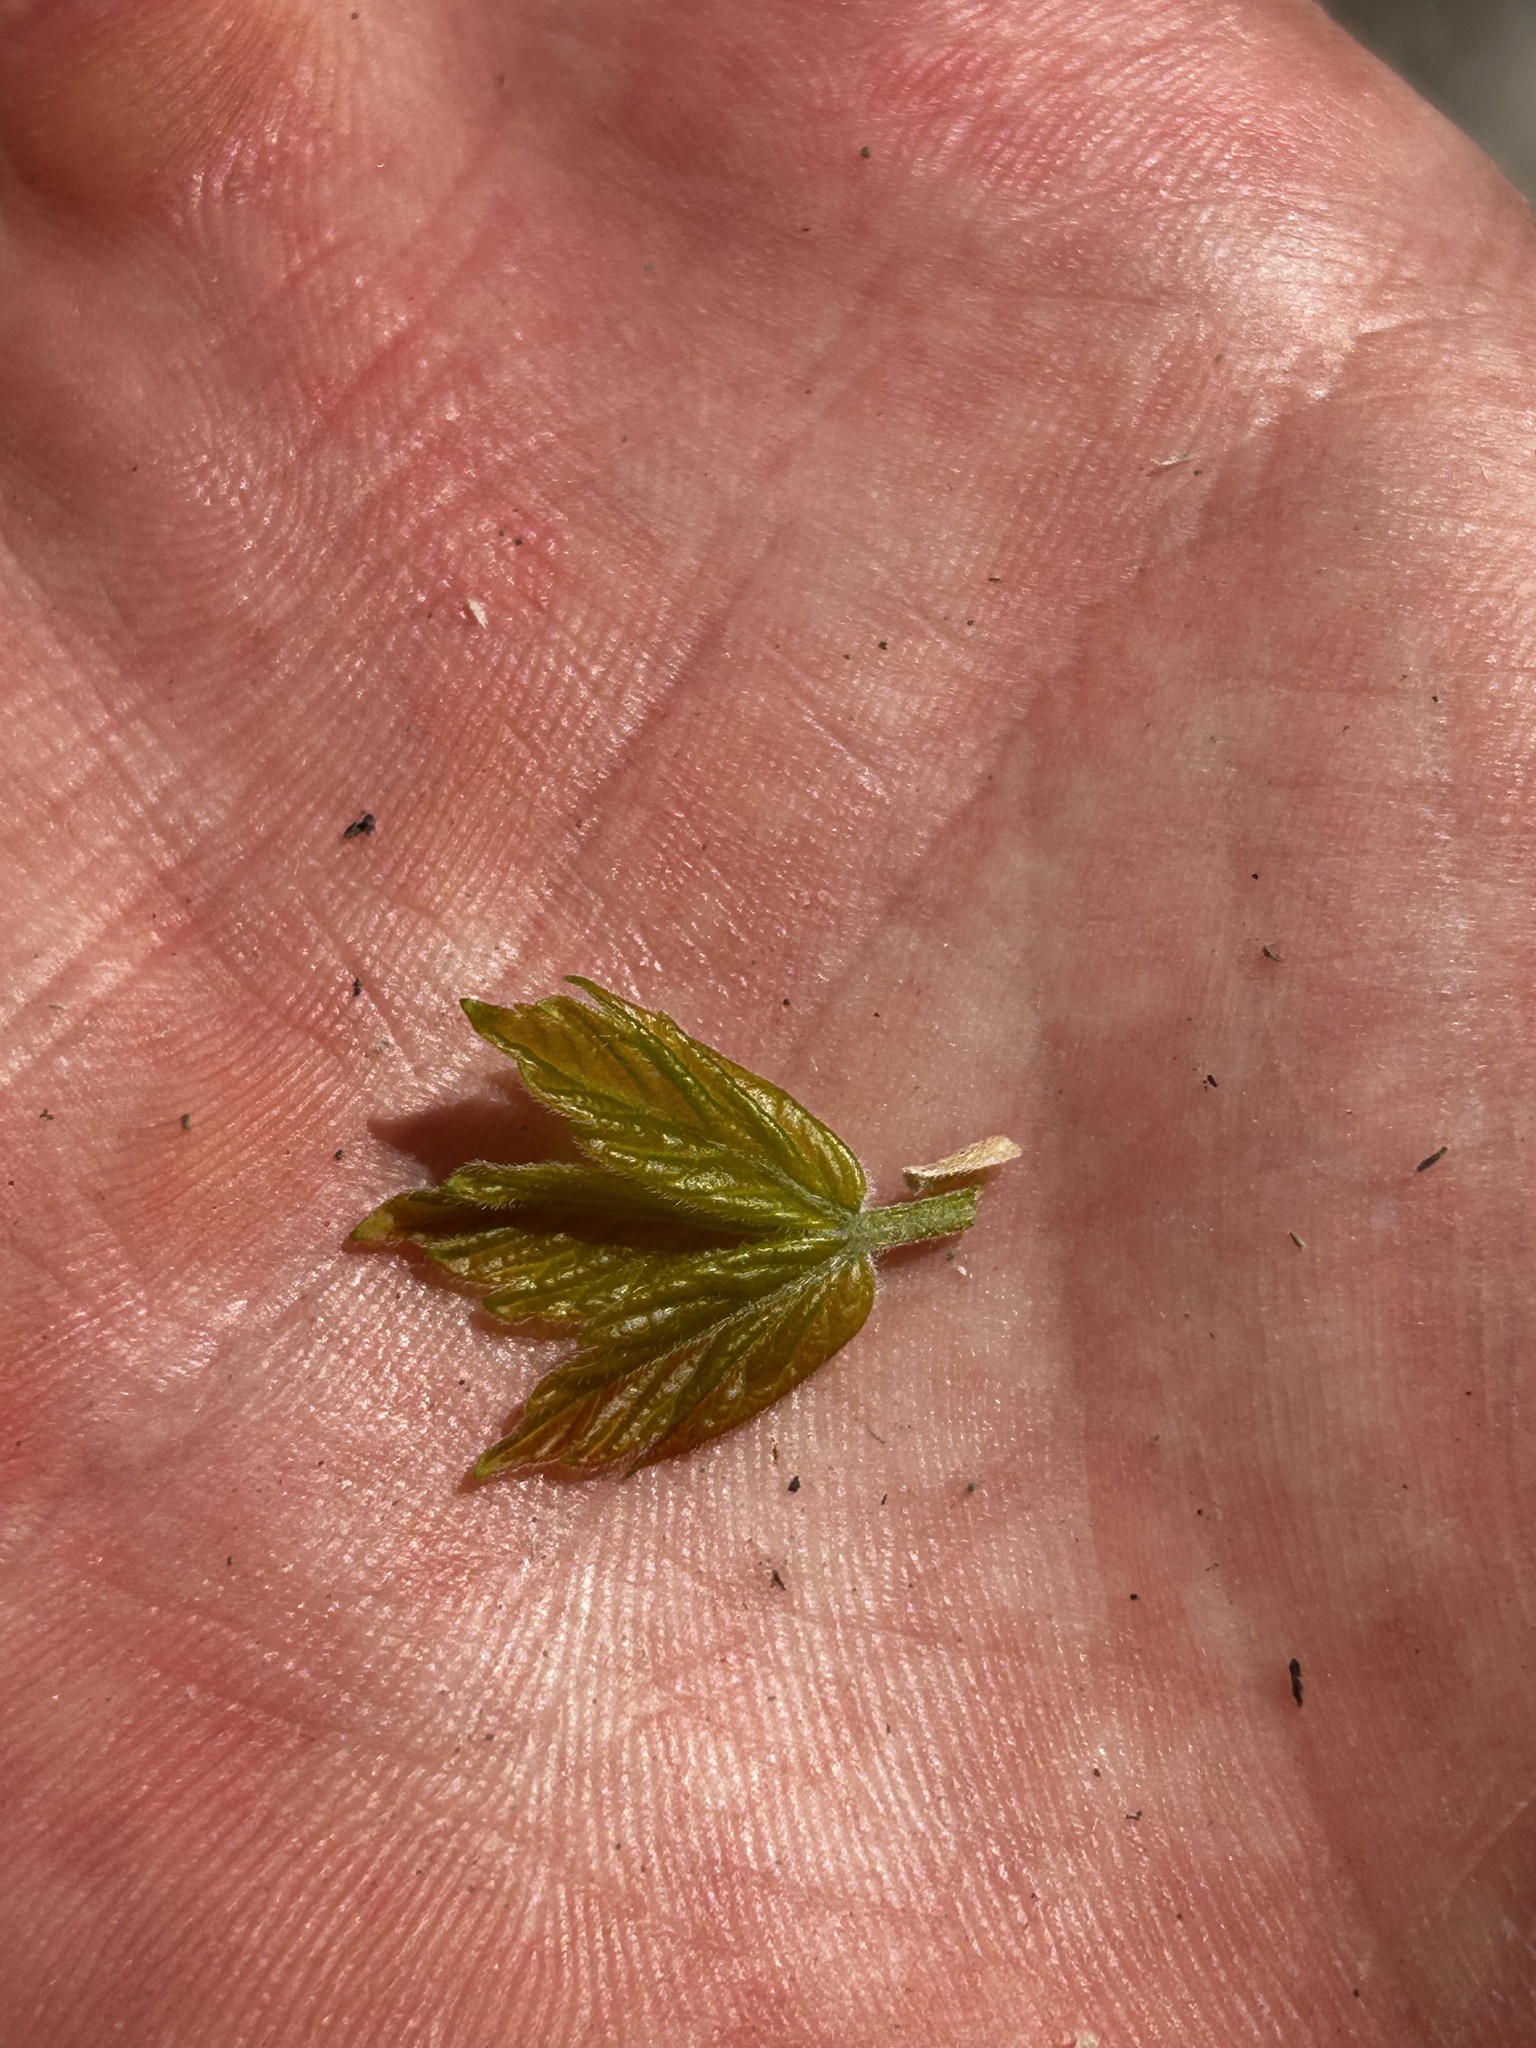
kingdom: Plantae
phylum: Tracheophyta
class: Magnoliopsida
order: Sapindales
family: Sapindaceae
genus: Acer
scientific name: Acer negundo
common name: Ashleaf maple
